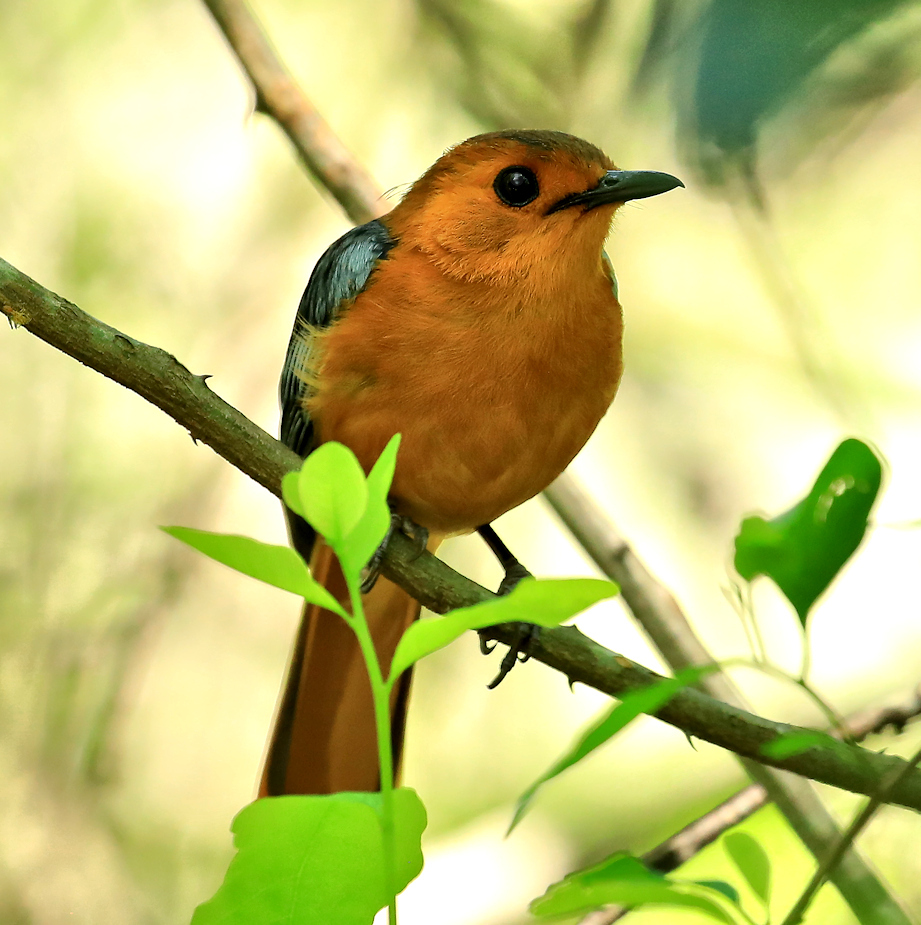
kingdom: Animalia
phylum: Chordata
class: Aves
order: Passeriformes
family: Muscicapidae
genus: Cossypha
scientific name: Cossypha natalensis
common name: Red-capped robin-chat
